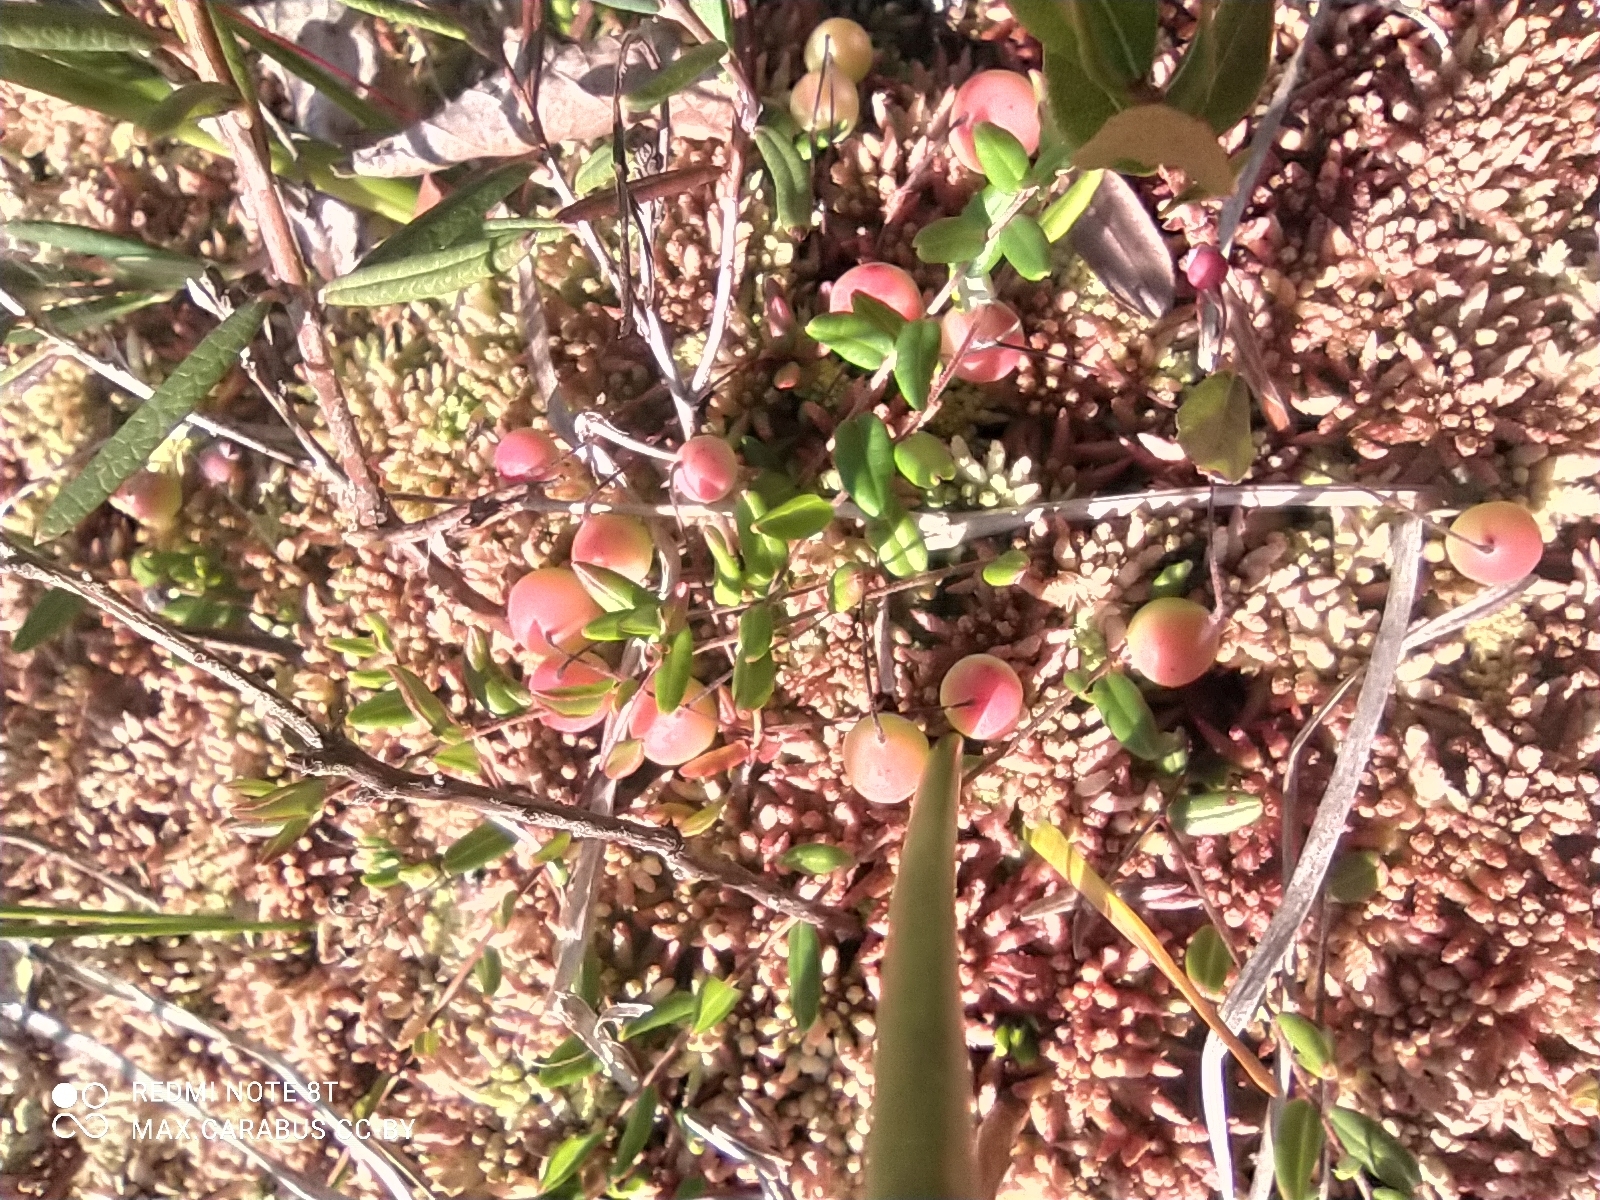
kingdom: Plantae
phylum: Tracheophyta
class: Magnoliopsida
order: Ericales
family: Ericaceae
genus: Vaccinium
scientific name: Vaccinium oxycoccos
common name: Cranberry
